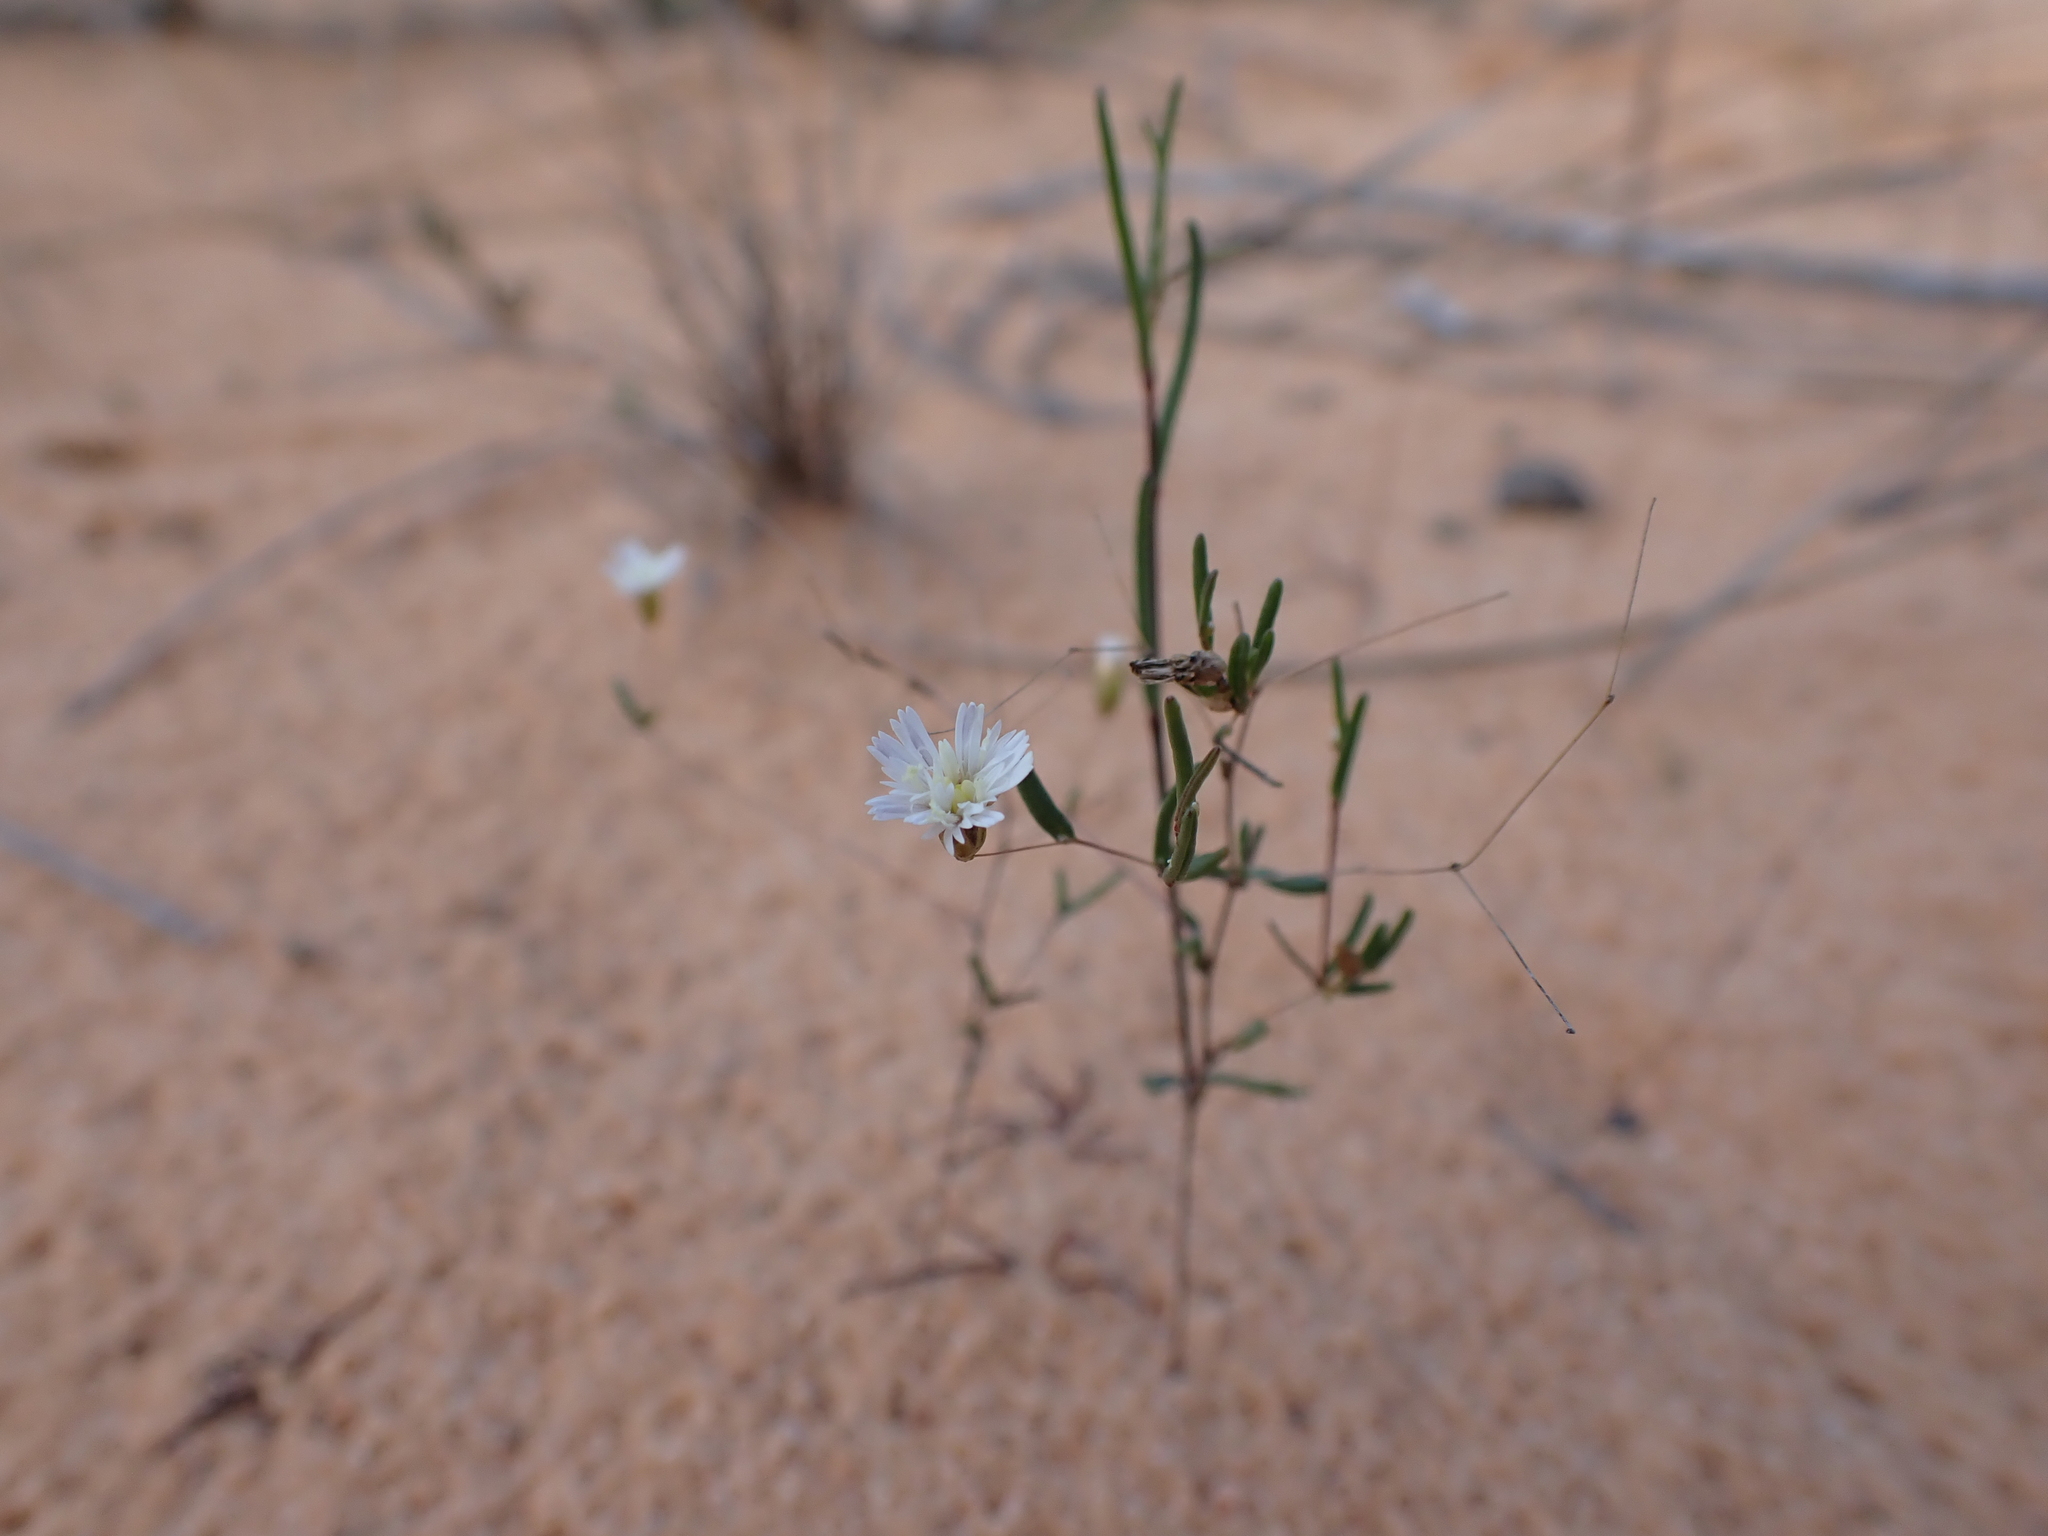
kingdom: Plantae
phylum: Tracheophyta
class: Magnoliopsida
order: Asterales
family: Asteraceae
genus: Siemssenia
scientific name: Siemssenia capillaris
